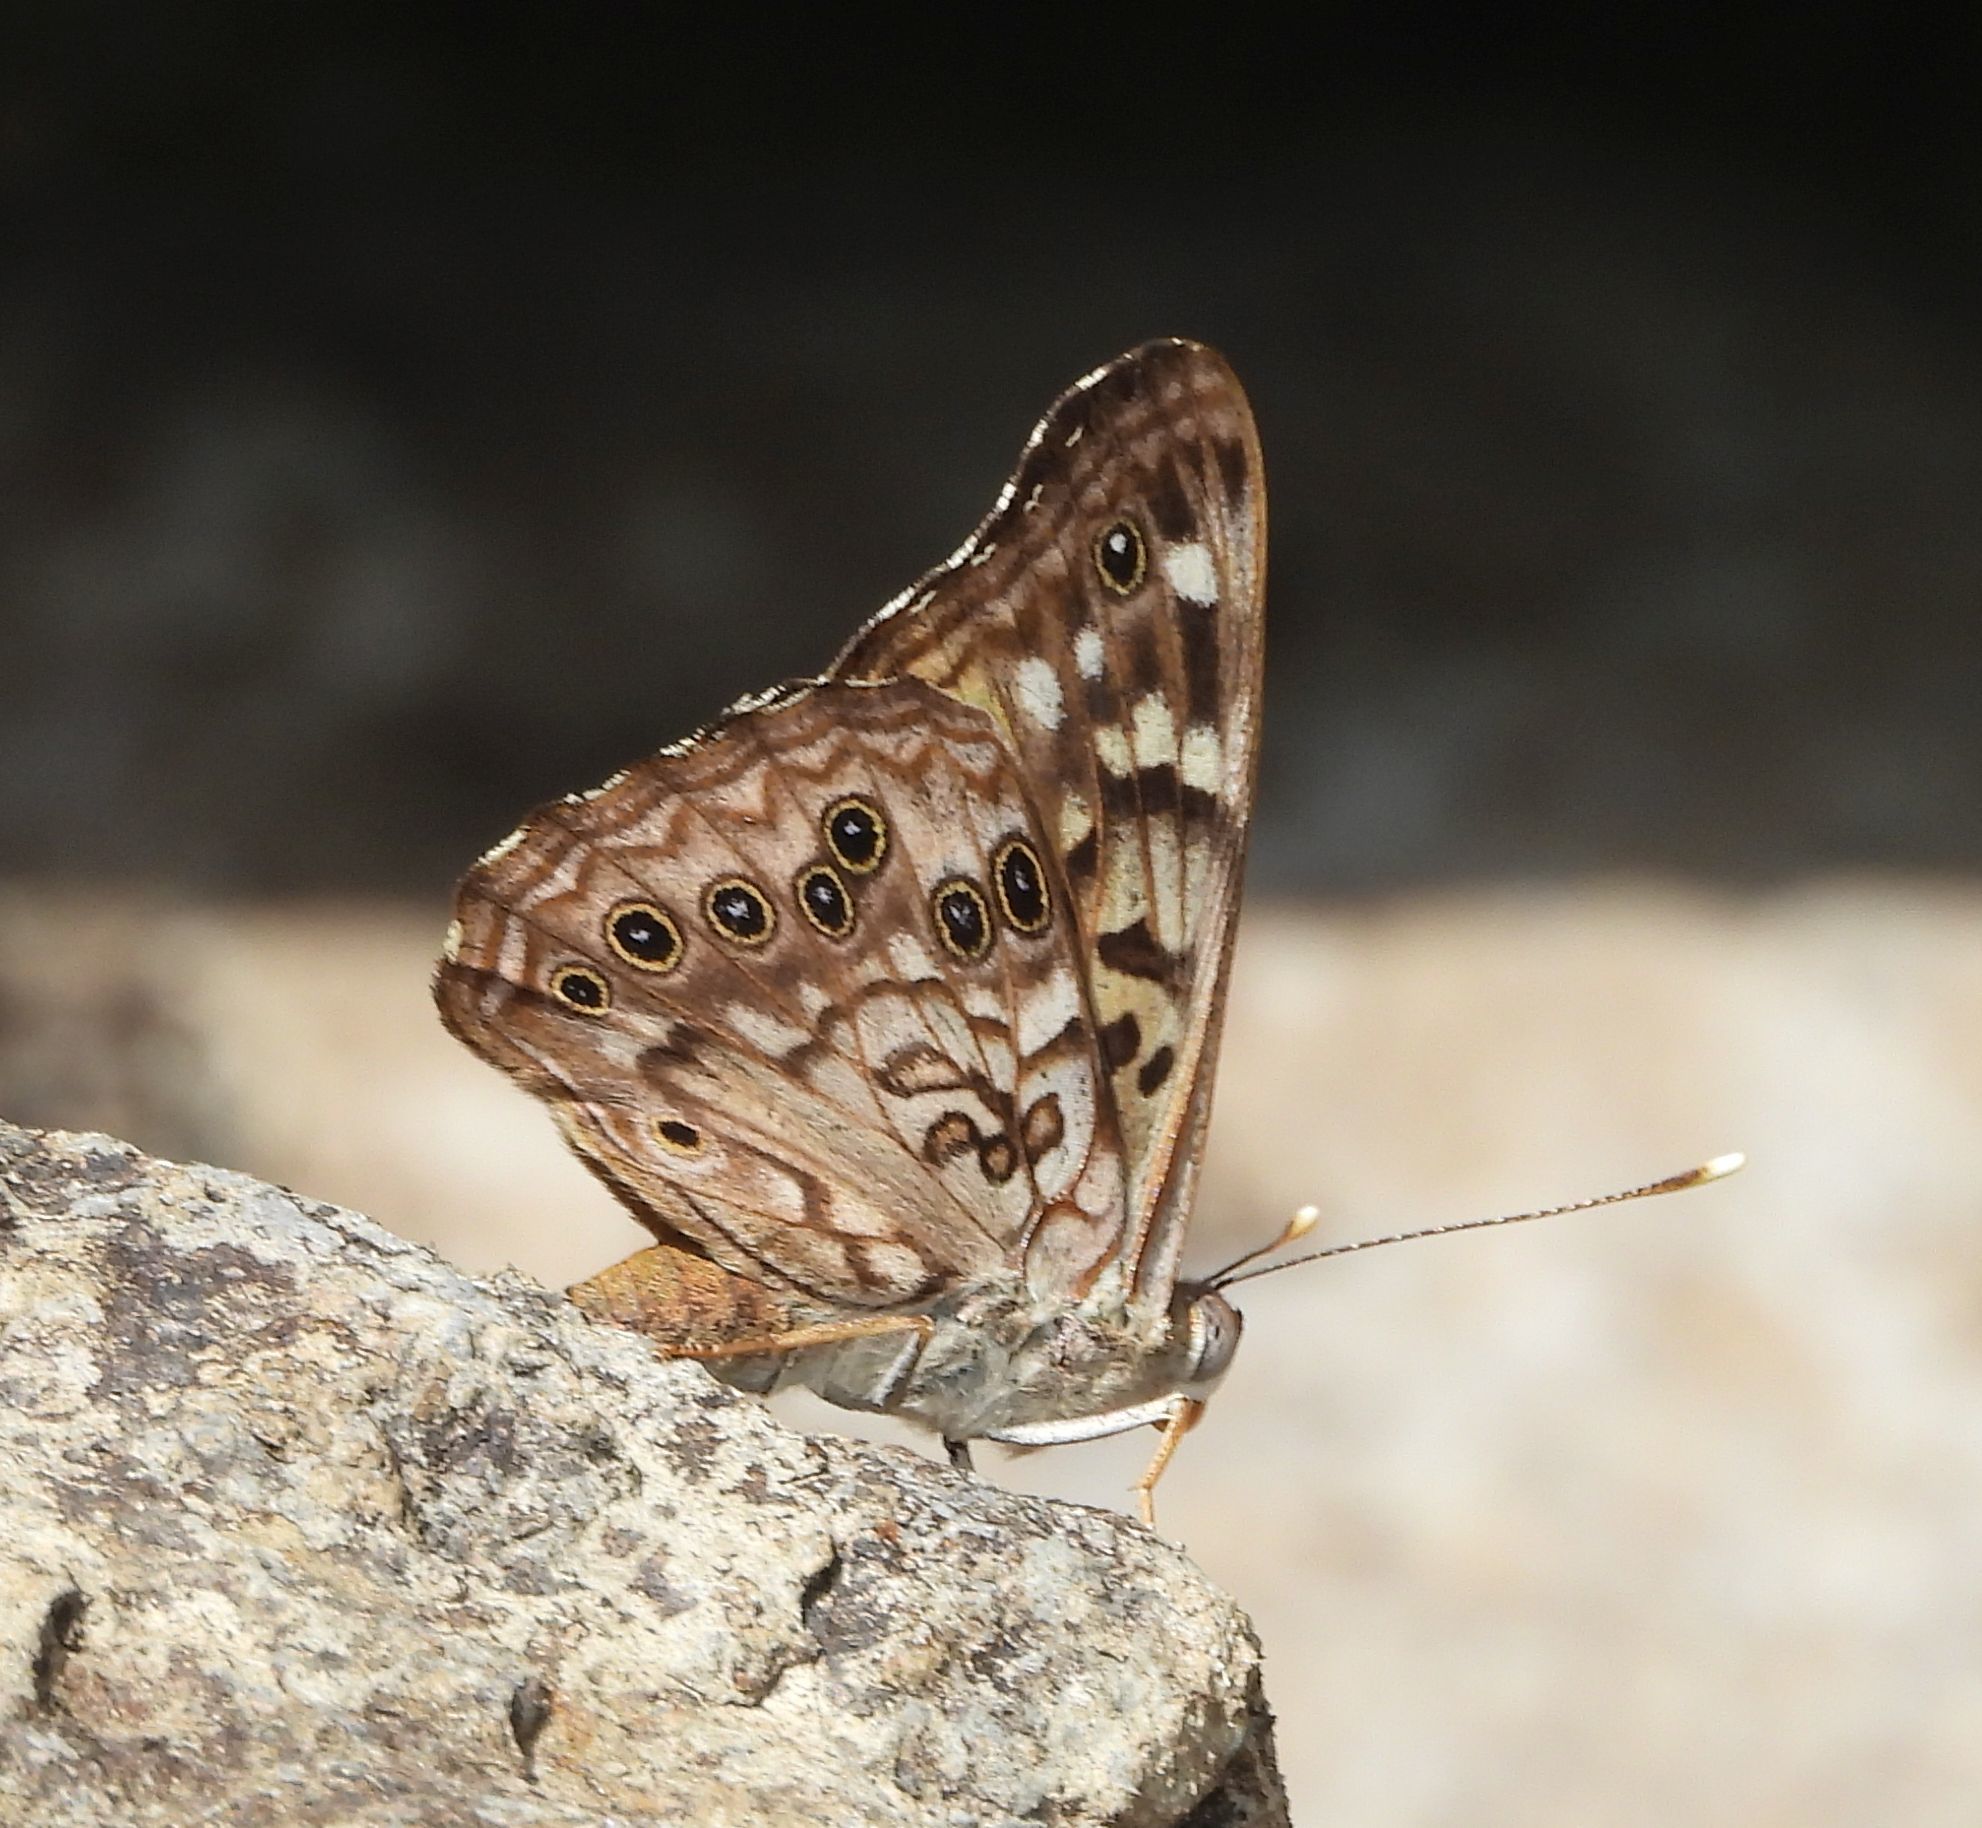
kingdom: Animalia
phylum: Arthropoda
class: Insecta
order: Lepidoptera
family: Nymphalidae
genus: Asterocampa
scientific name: Asterocampa celtis
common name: Hackberry emperor
